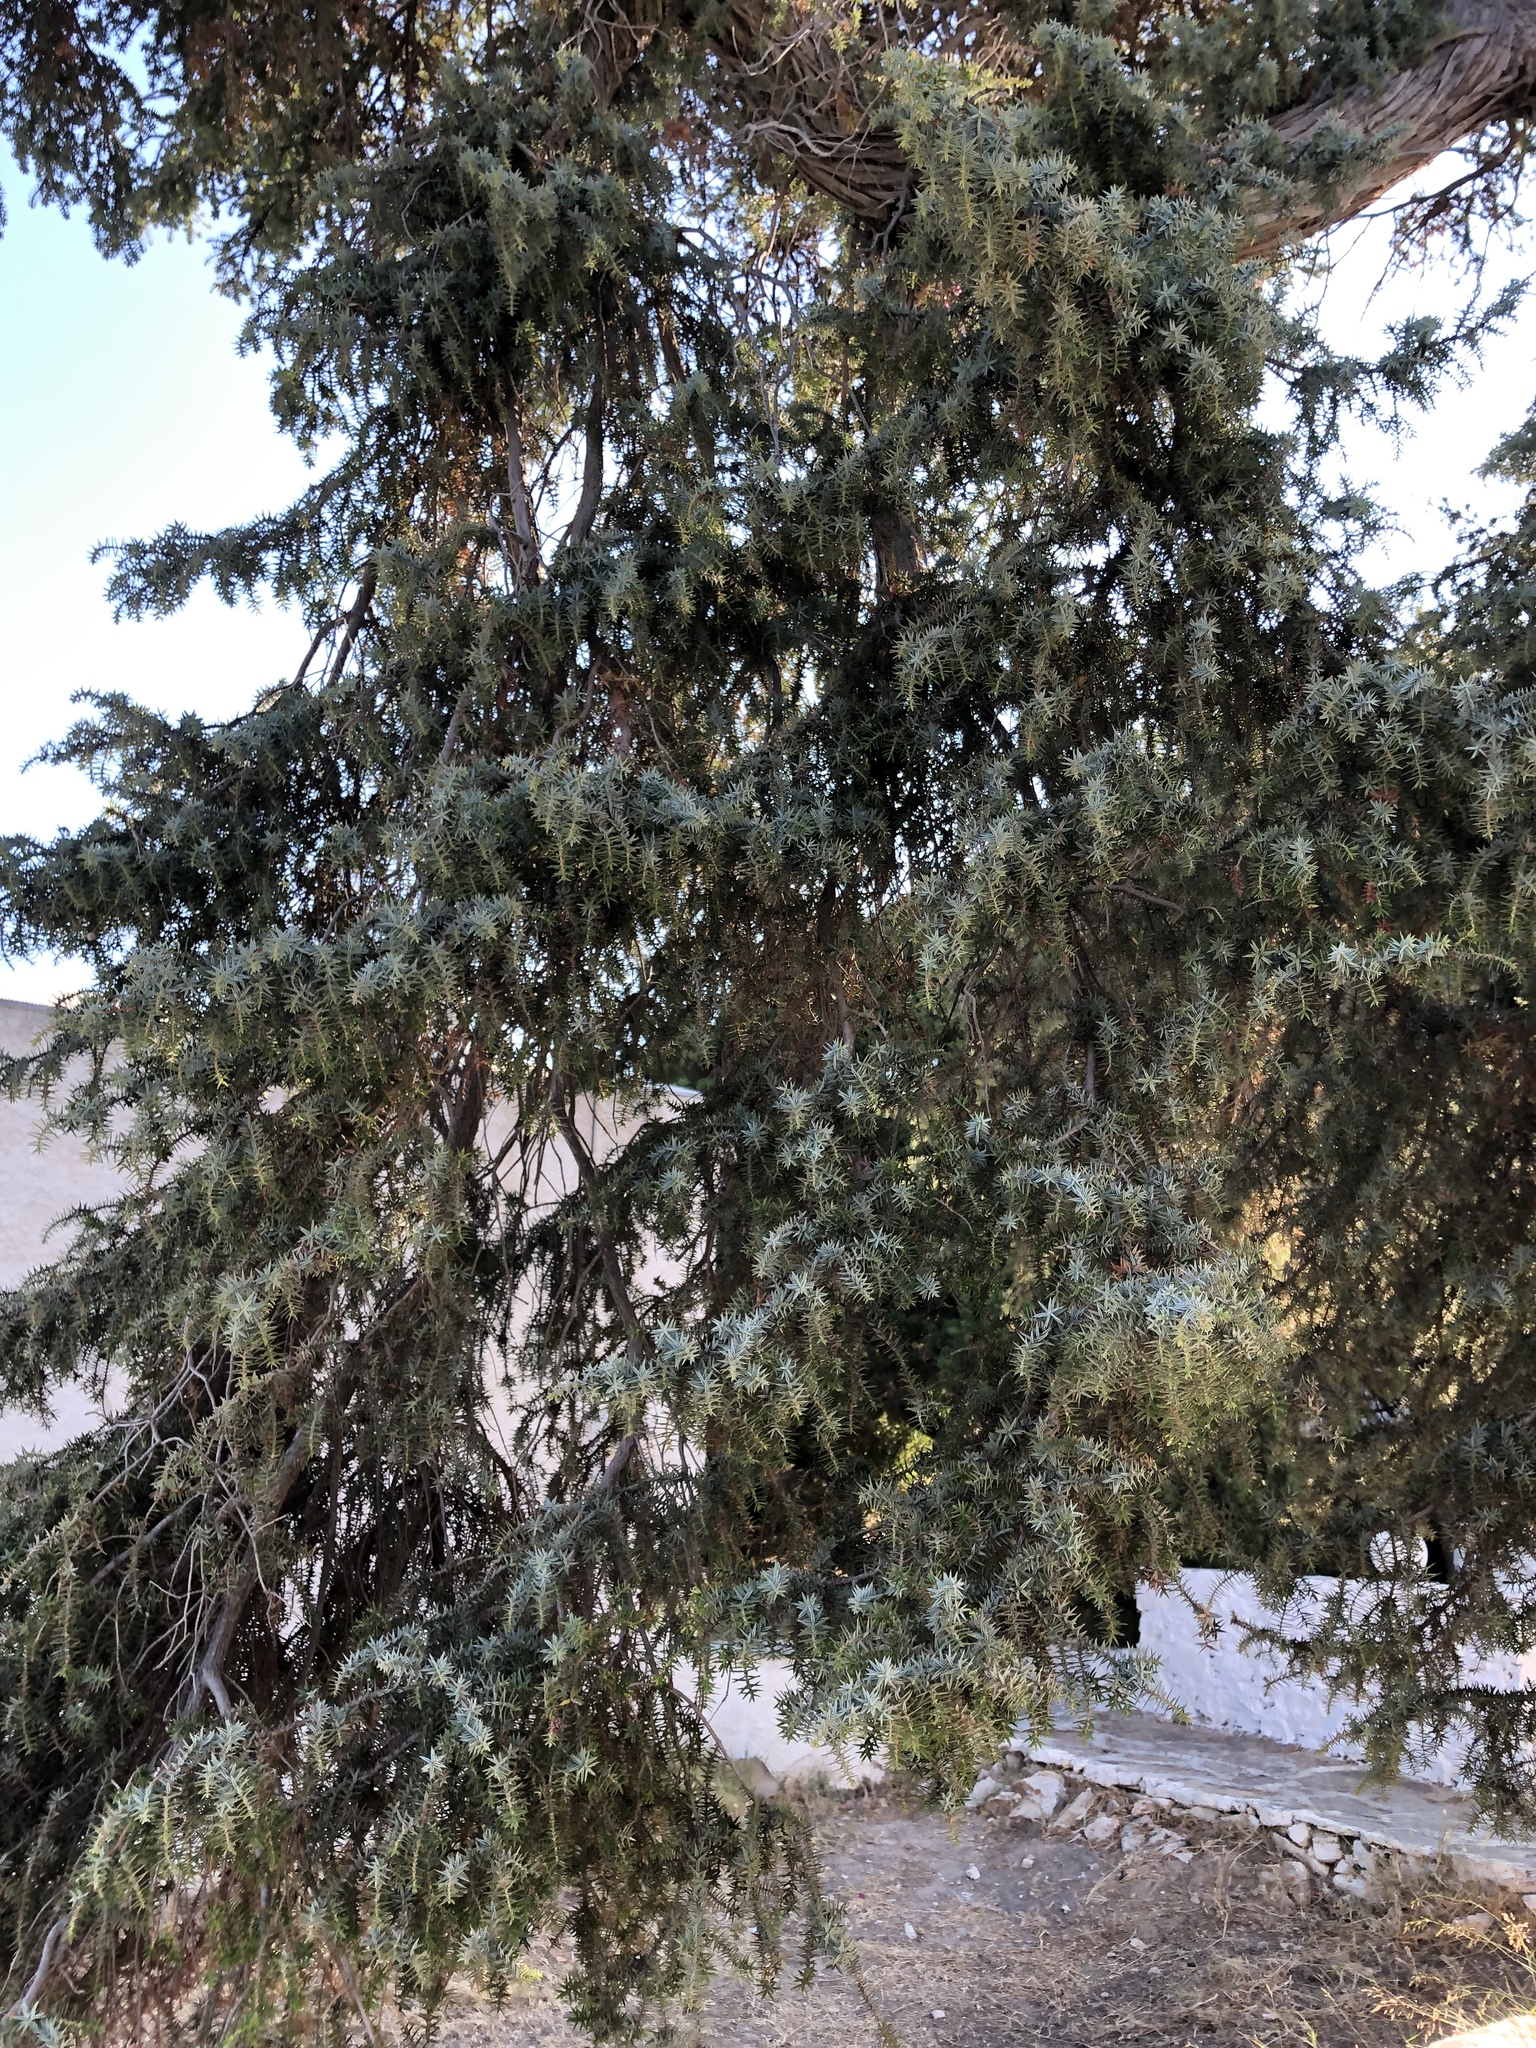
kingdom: Plantae
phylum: Tracheophyta
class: Pinopsida
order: Pinales
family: Pinaceae
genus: Cedrus
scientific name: Cedrus libani
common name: Cedar-of-lebanon
